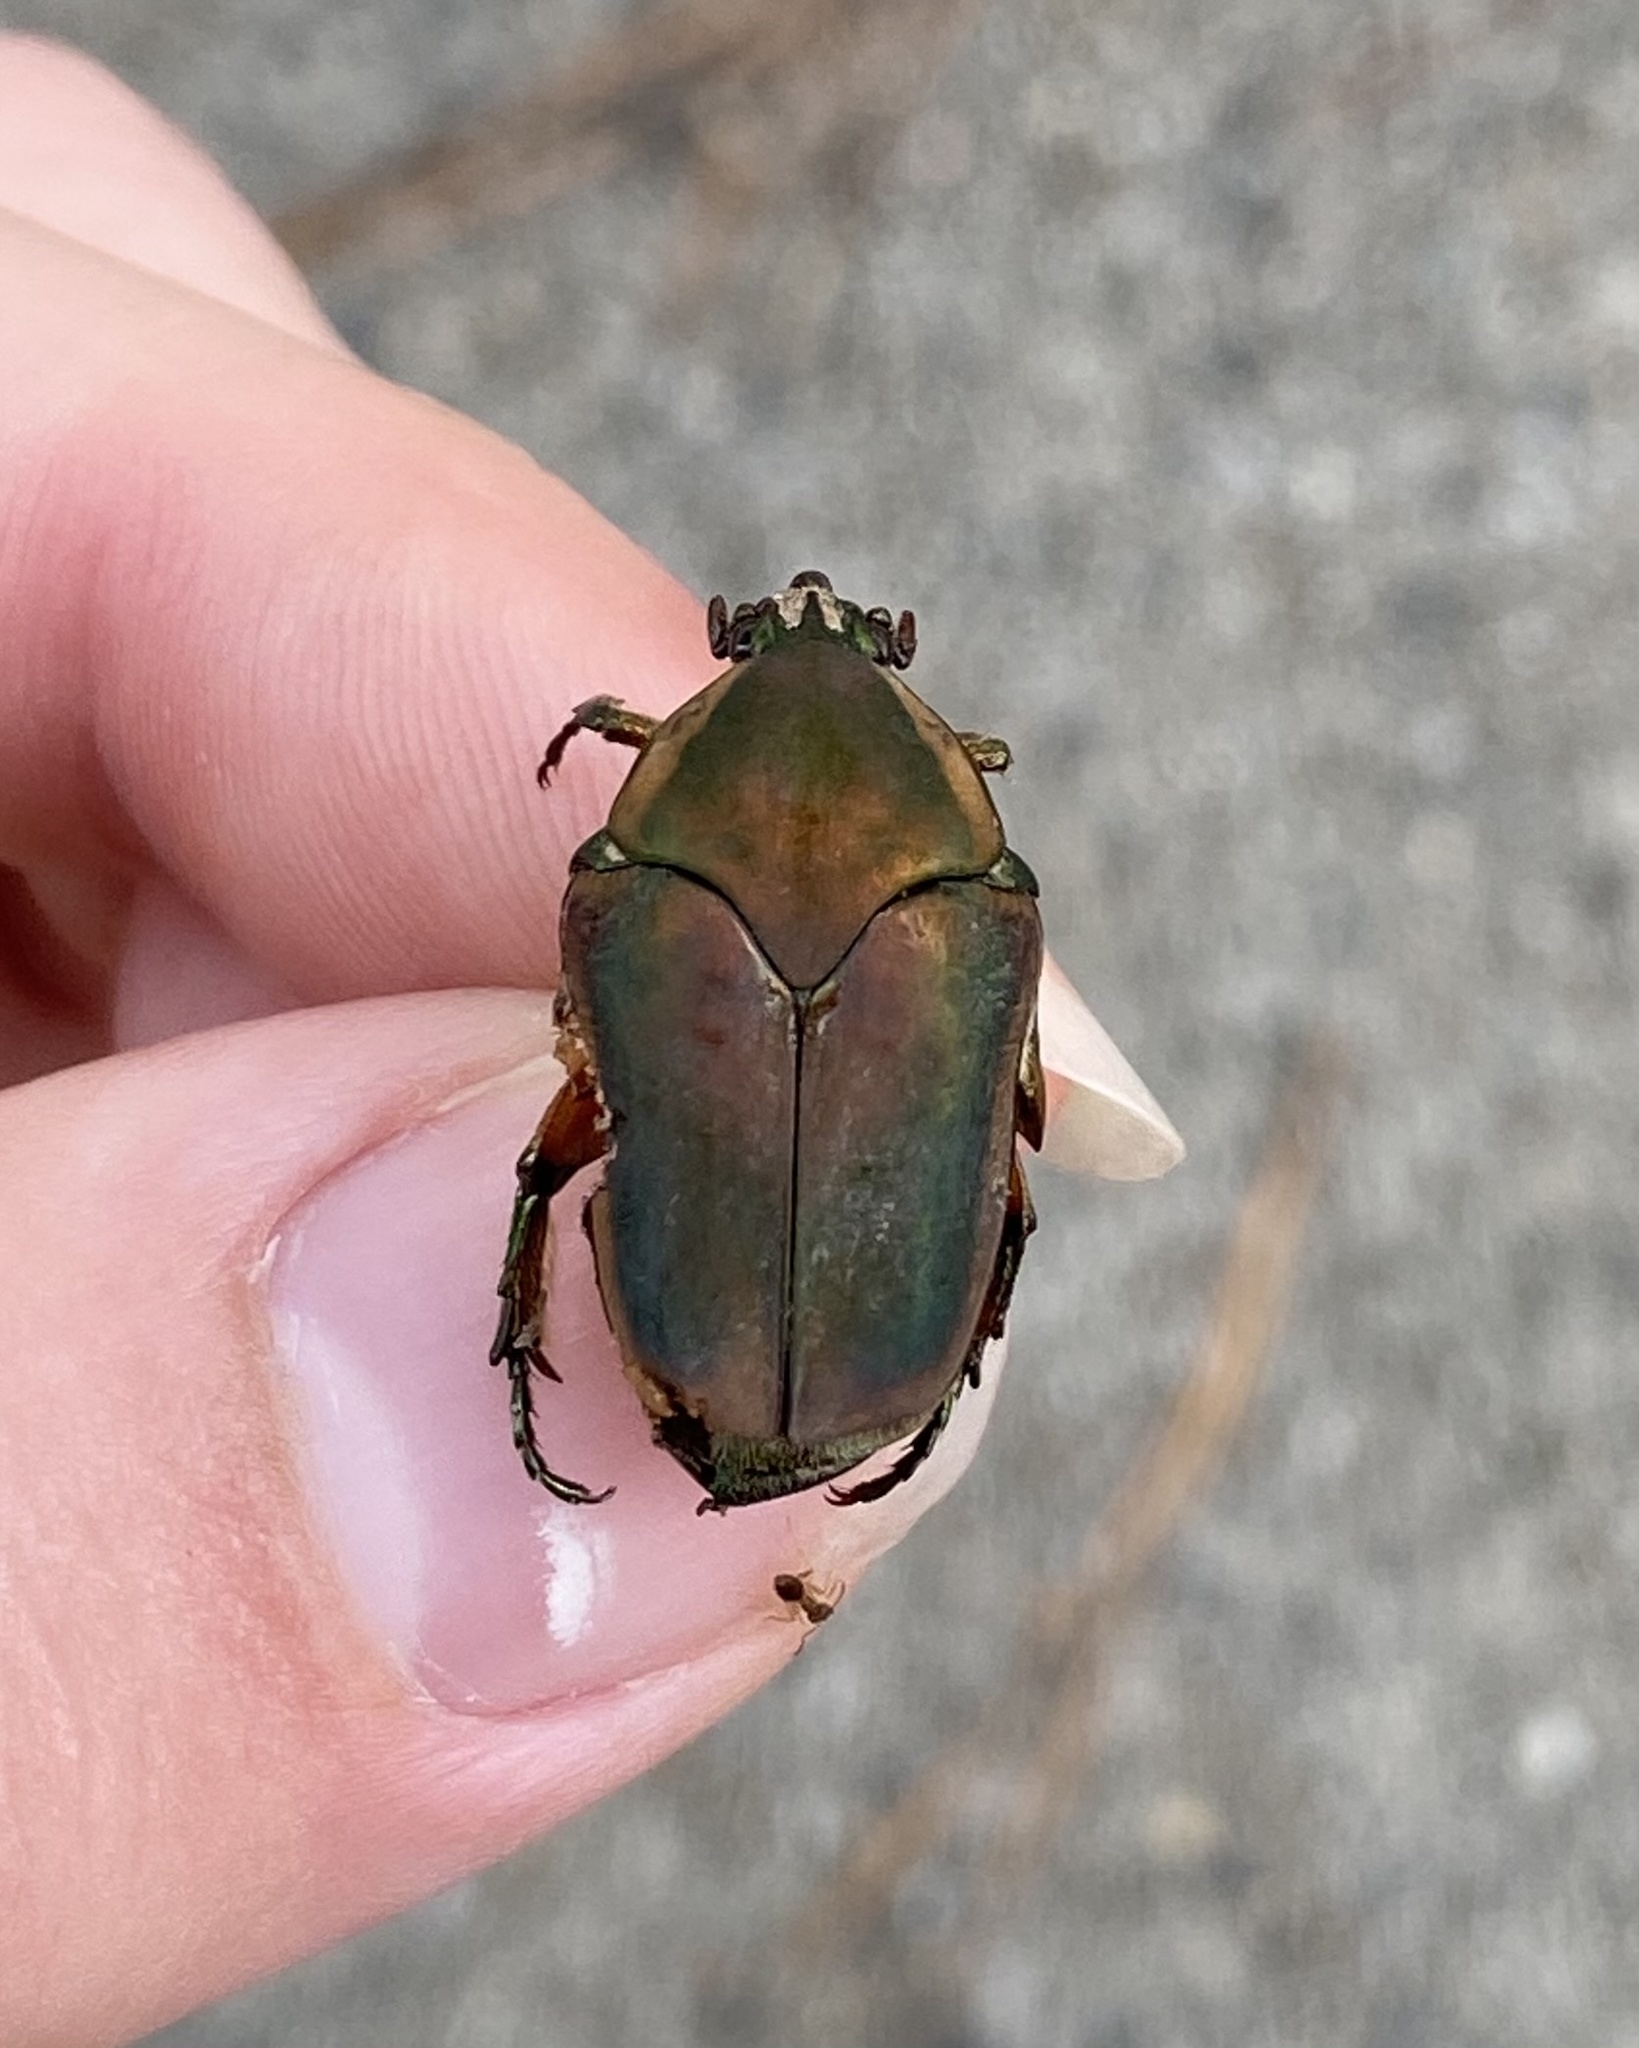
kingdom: Animalia
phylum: Arthropoda
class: Insecta
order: Coleoptera
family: Scarabaeidae
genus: Cotinis
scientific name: Cotinis nitida
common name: Common green june beetle
